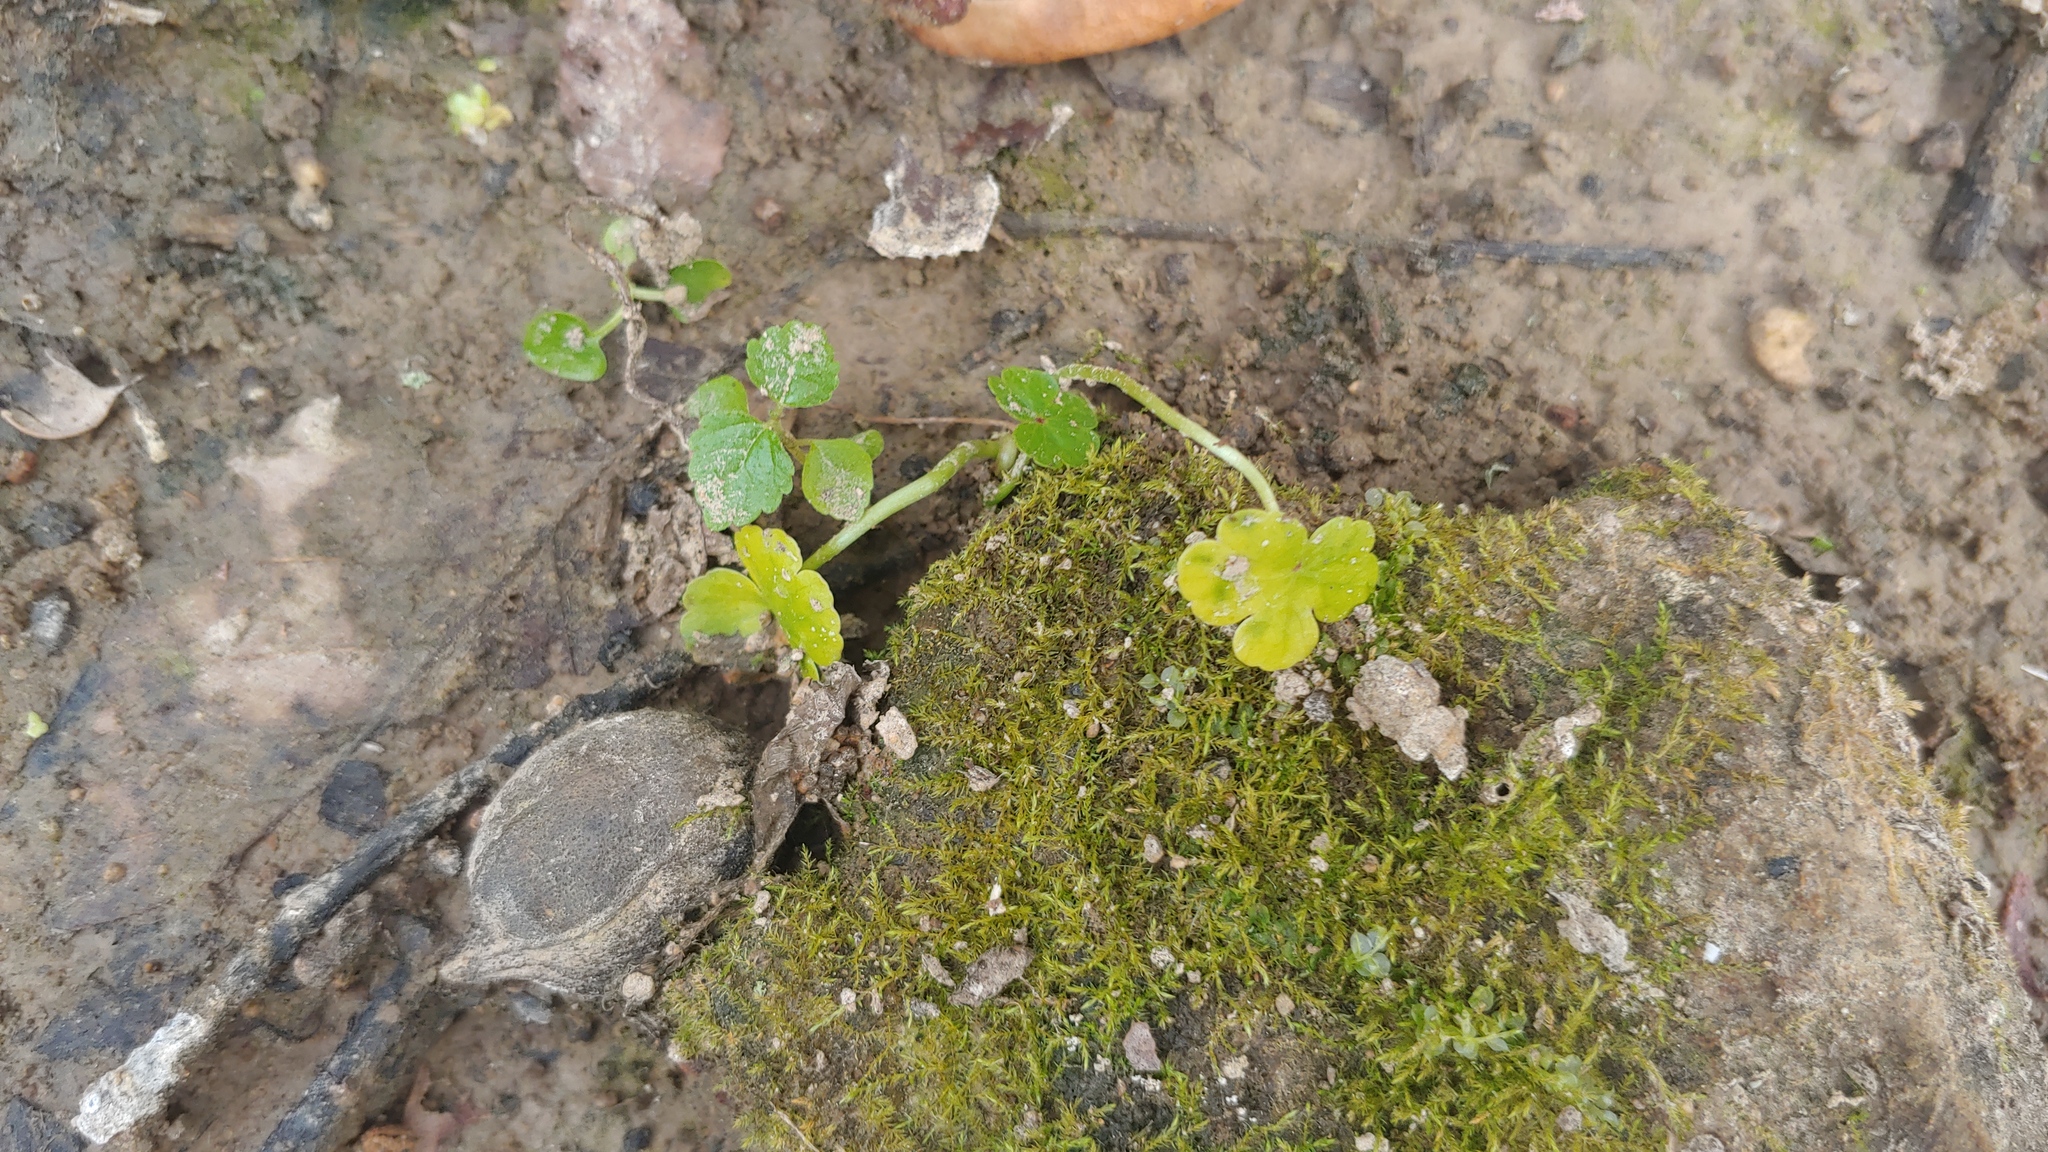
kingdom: Plantae
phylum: Tracheophyta
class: Magnoliopsida
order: Apiales
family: Araliaceae
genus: Hydrocotyle
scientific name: Hydrocotyle ranunculoides
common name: Floating pennywort
